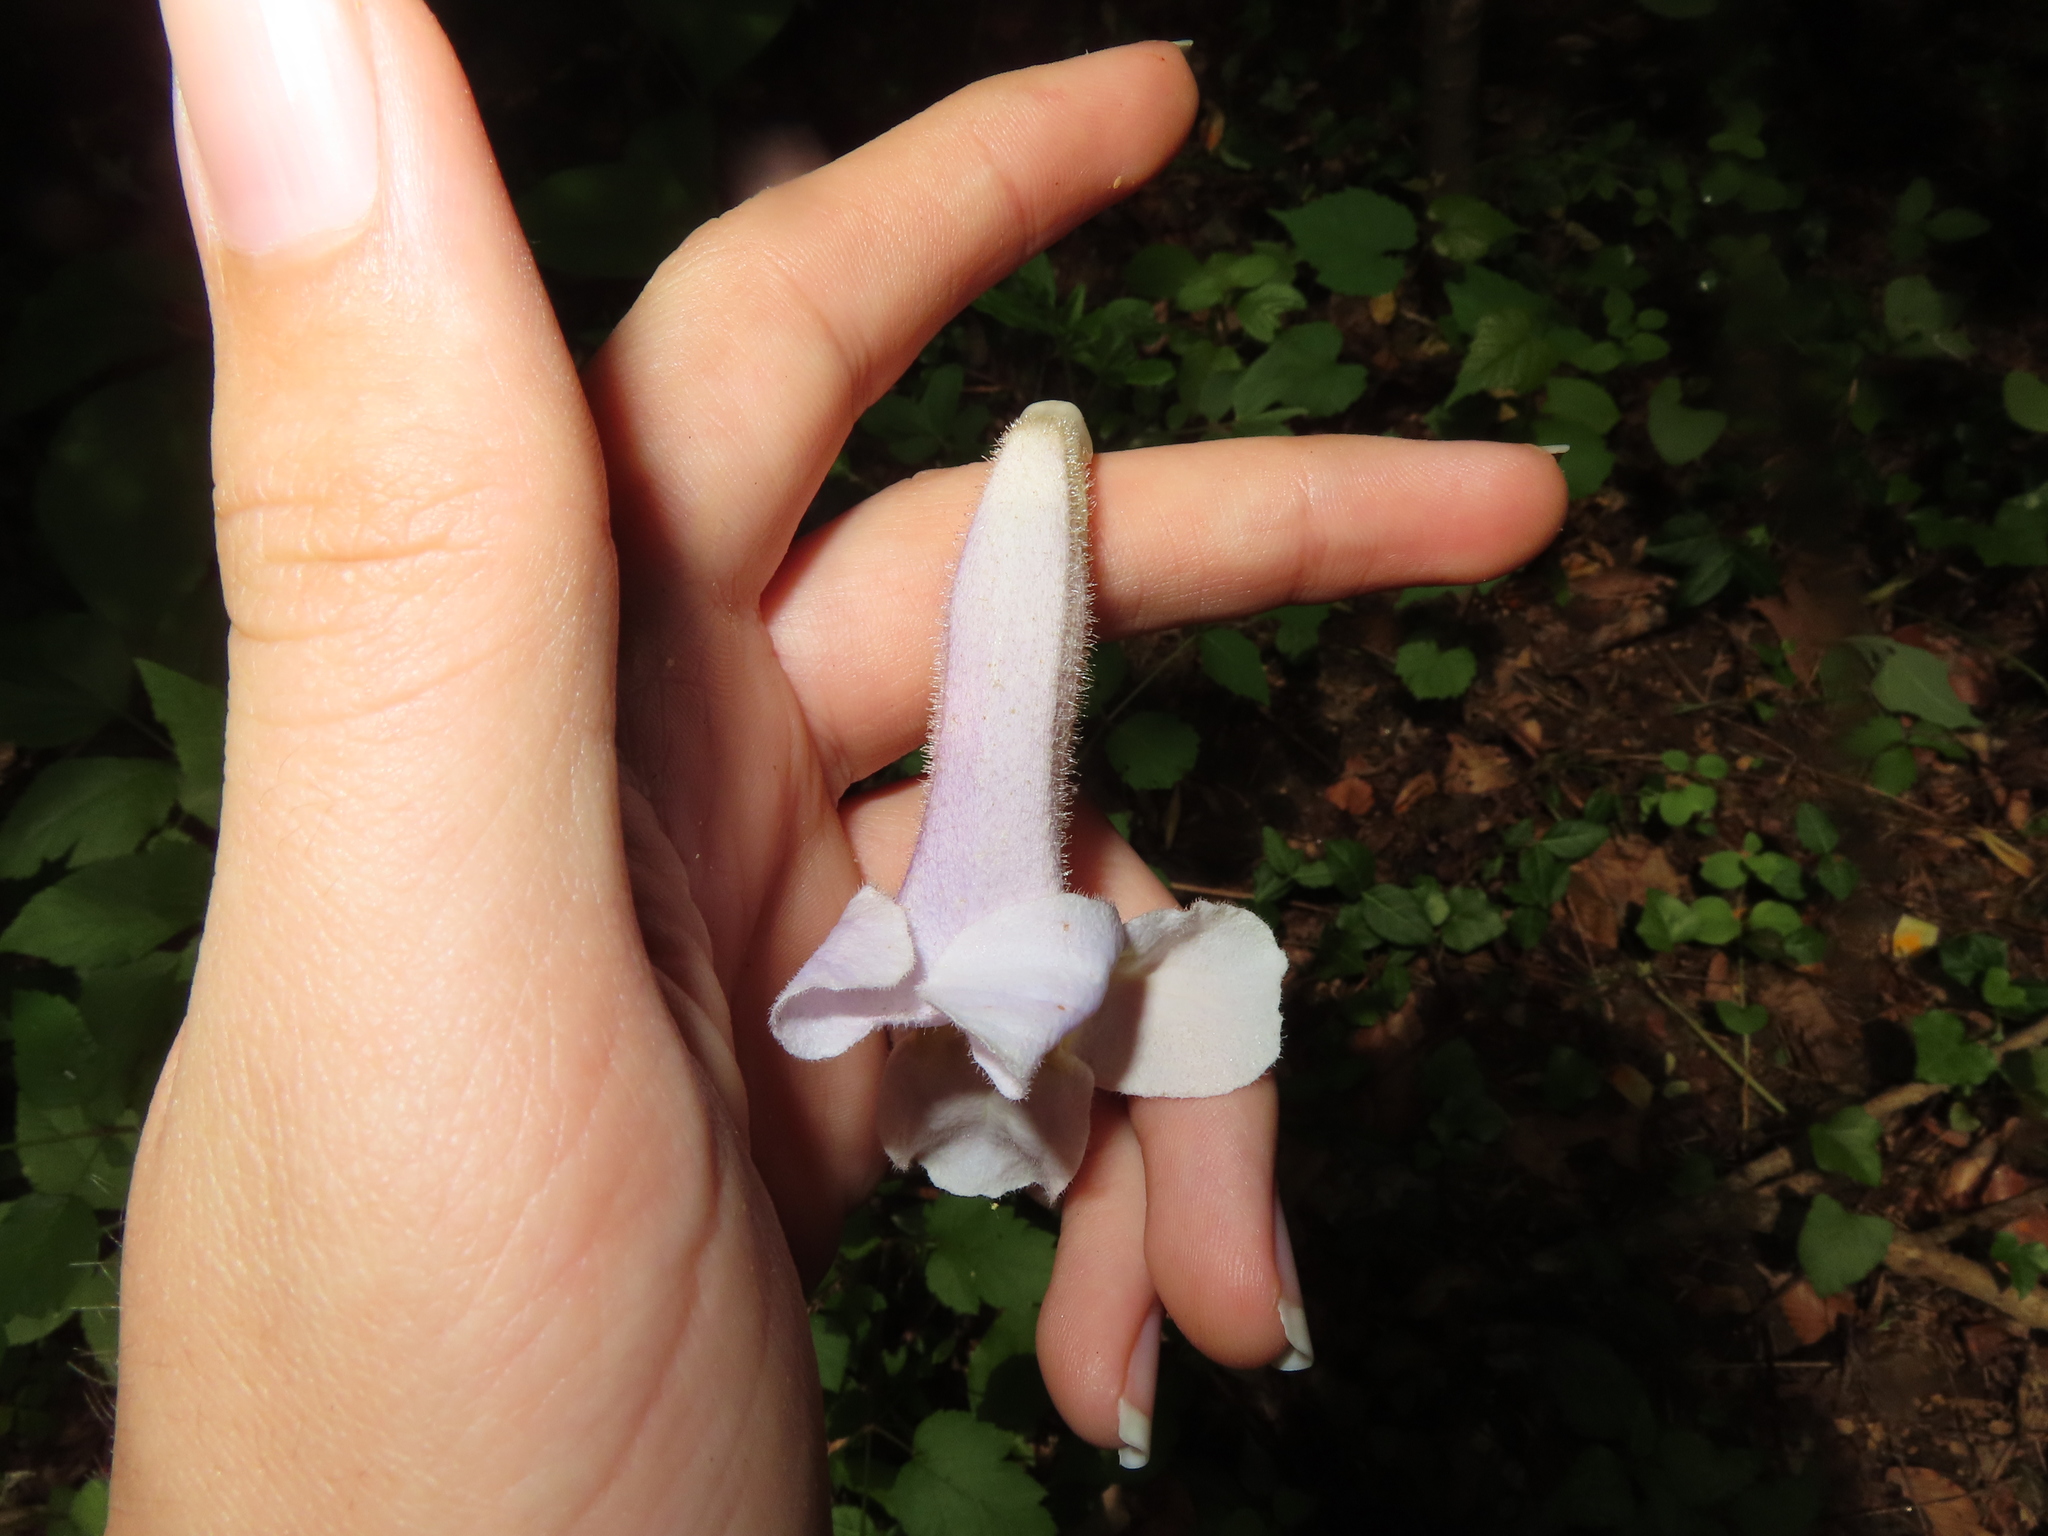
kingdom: Plantae
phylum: Tracheophyta
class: Magnoliopsida
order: Lamiales
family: Paulowniaceae
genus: Paulownia
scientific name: Paulownia tomentosa
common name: Foxglove-tree
